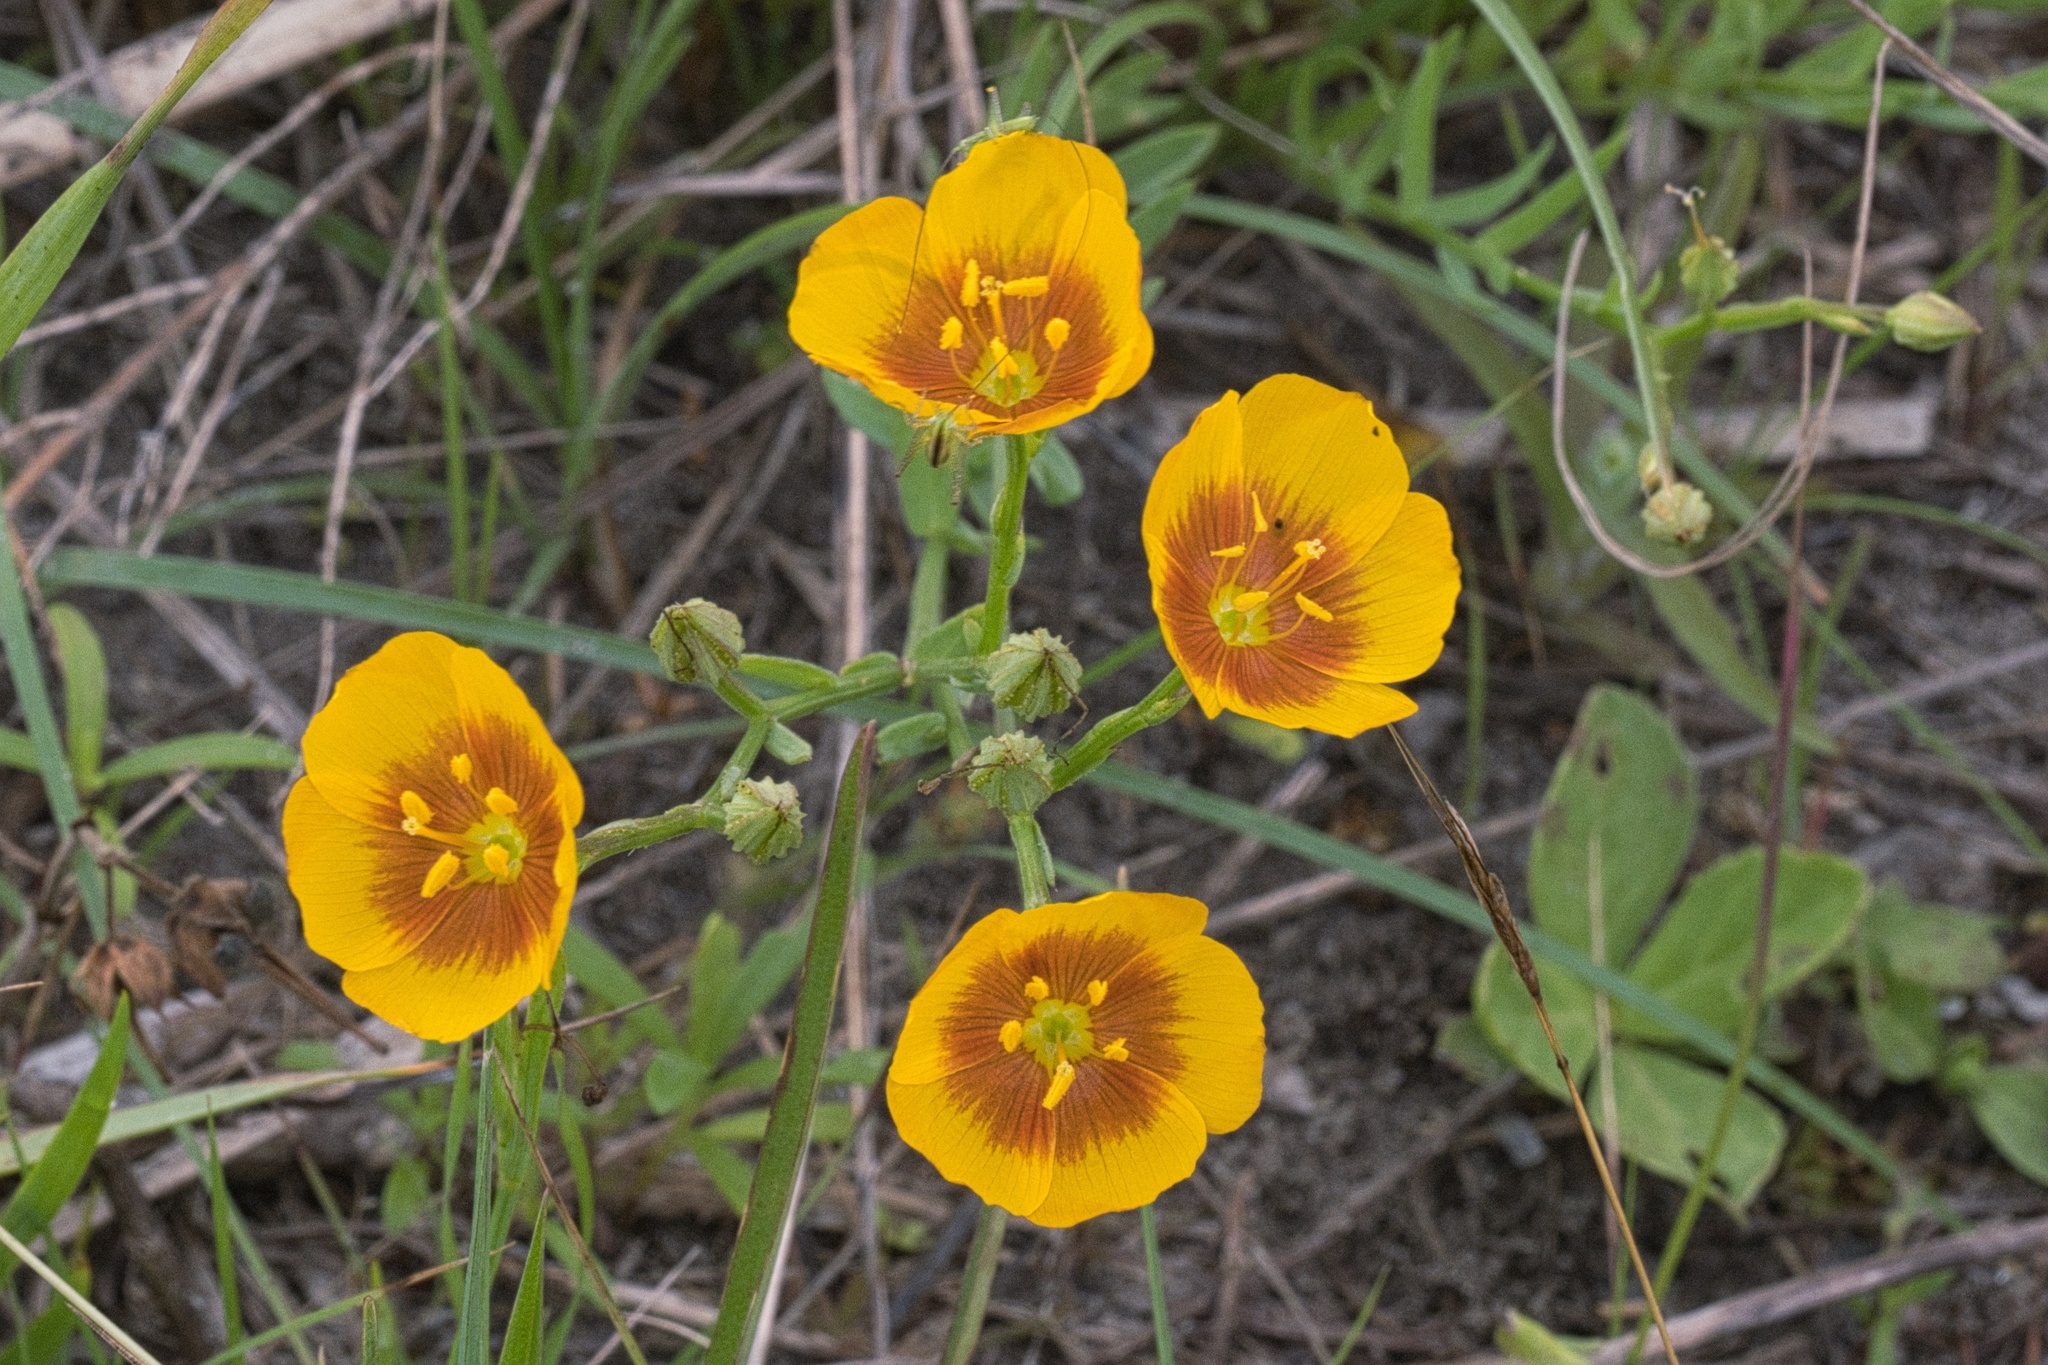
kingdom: Plantae
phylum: Tracheophyta
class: Magnoliopsida
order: Malpighiales
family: Linaceae
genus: Linum
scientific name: Linum berlandieri
